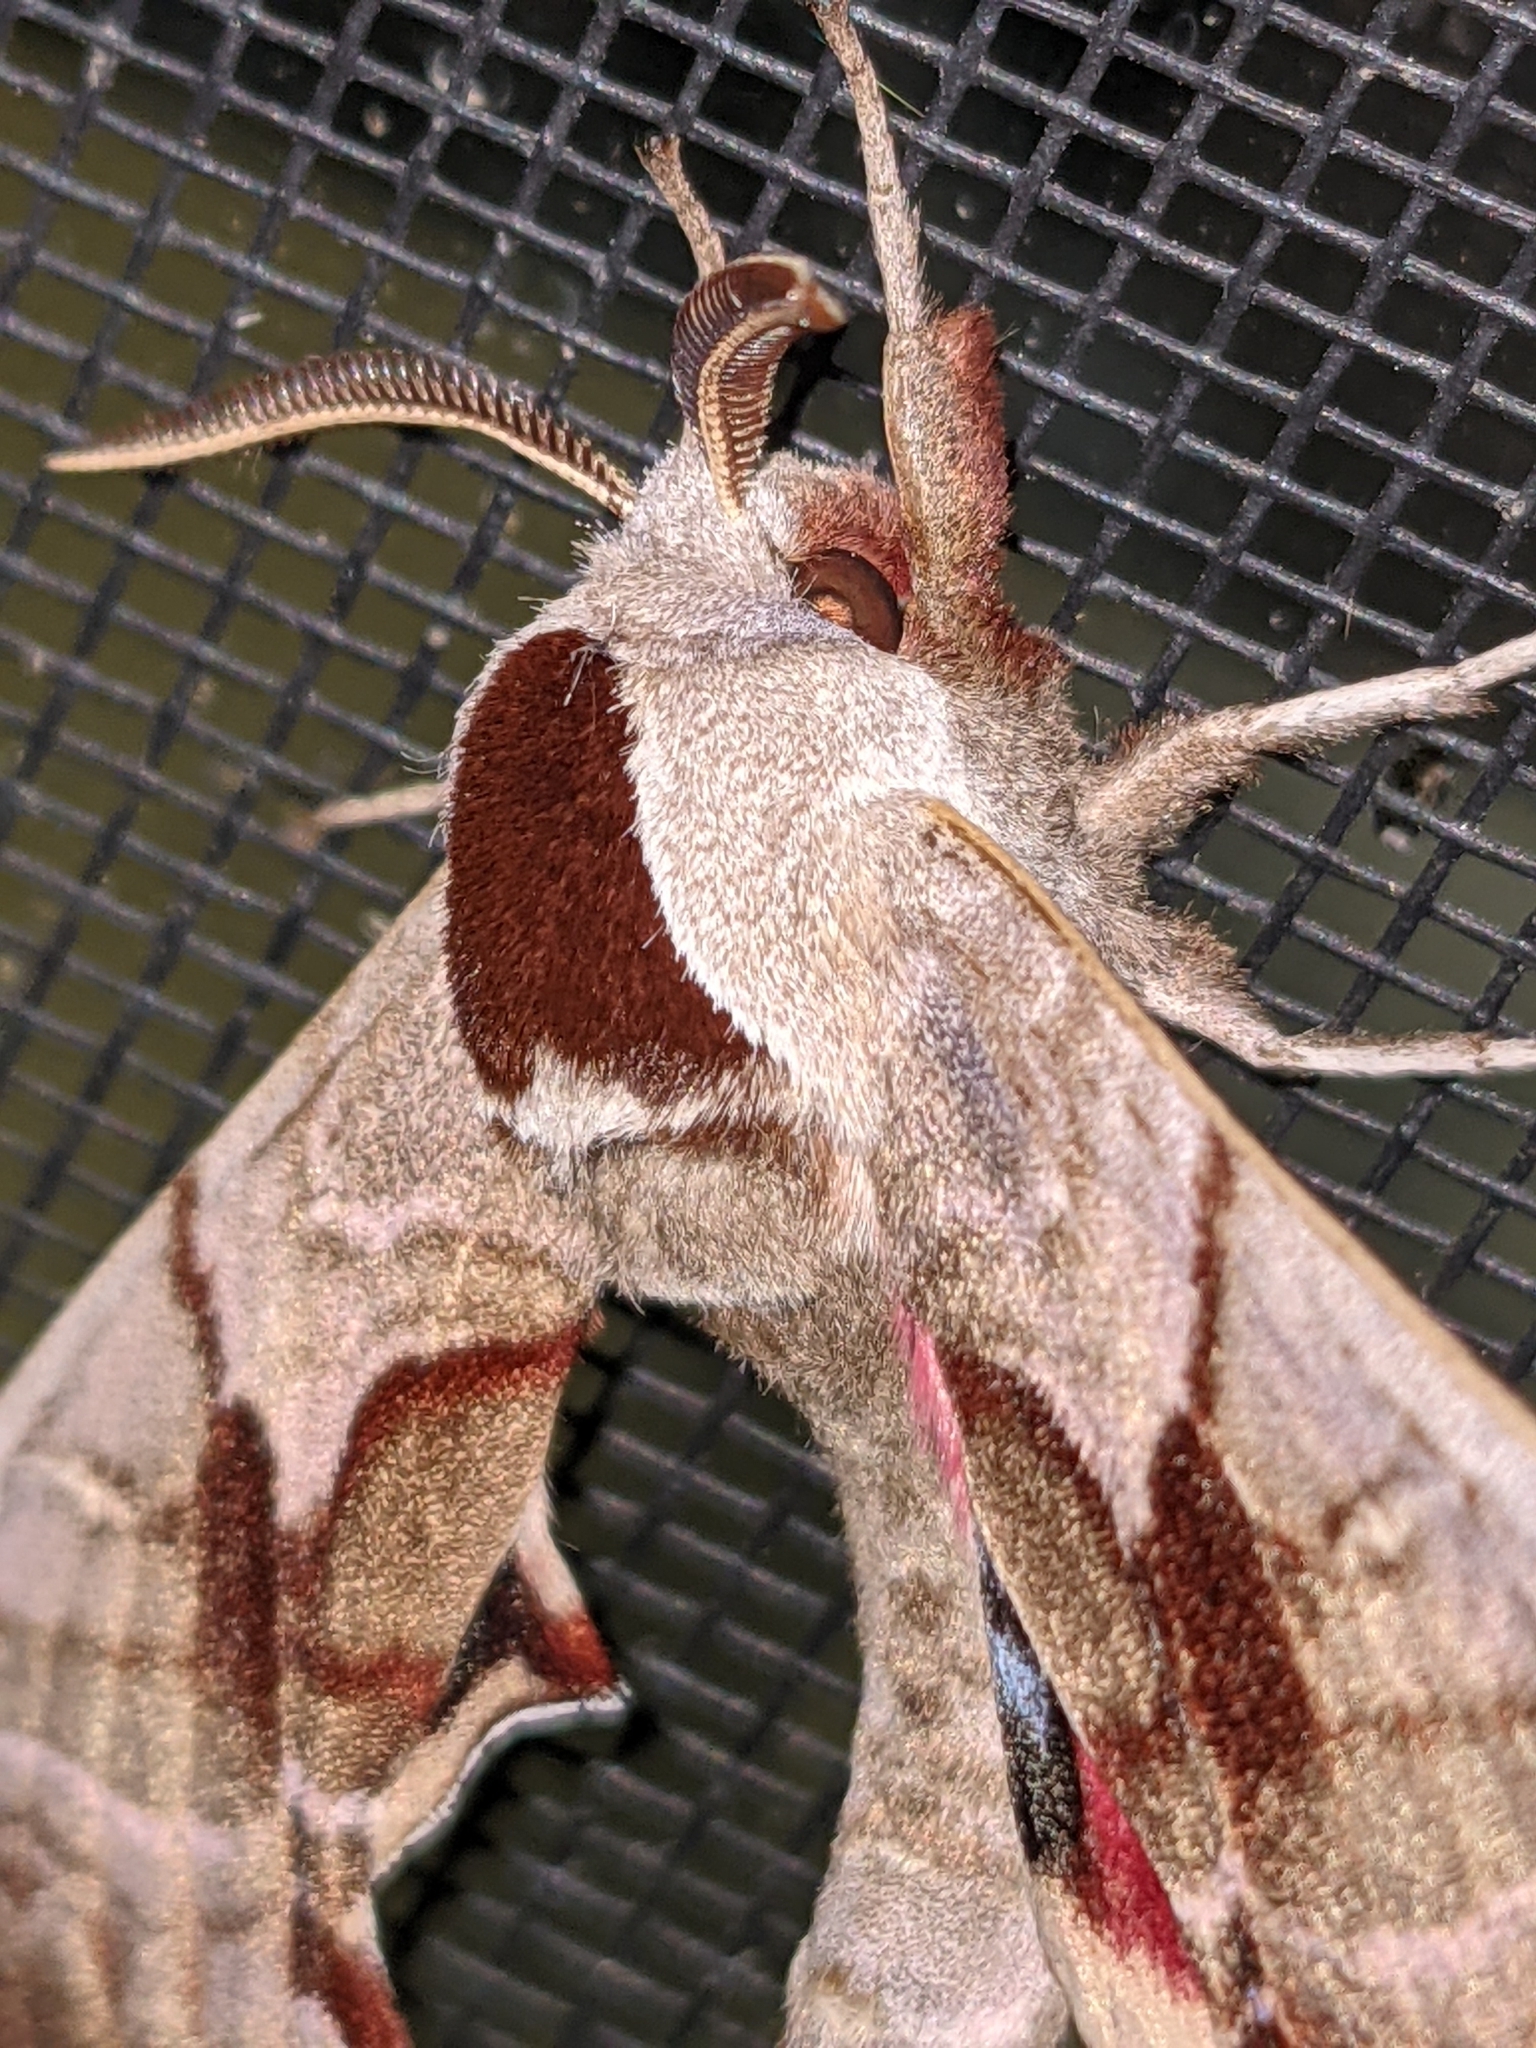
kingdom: Animalia
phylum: Arthropoda
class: Insecta
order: Lepidoptera
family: Sphingidae
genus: Smerinthus
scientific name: Smerinthus jamaicensis
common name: Twin spotted sphinx
